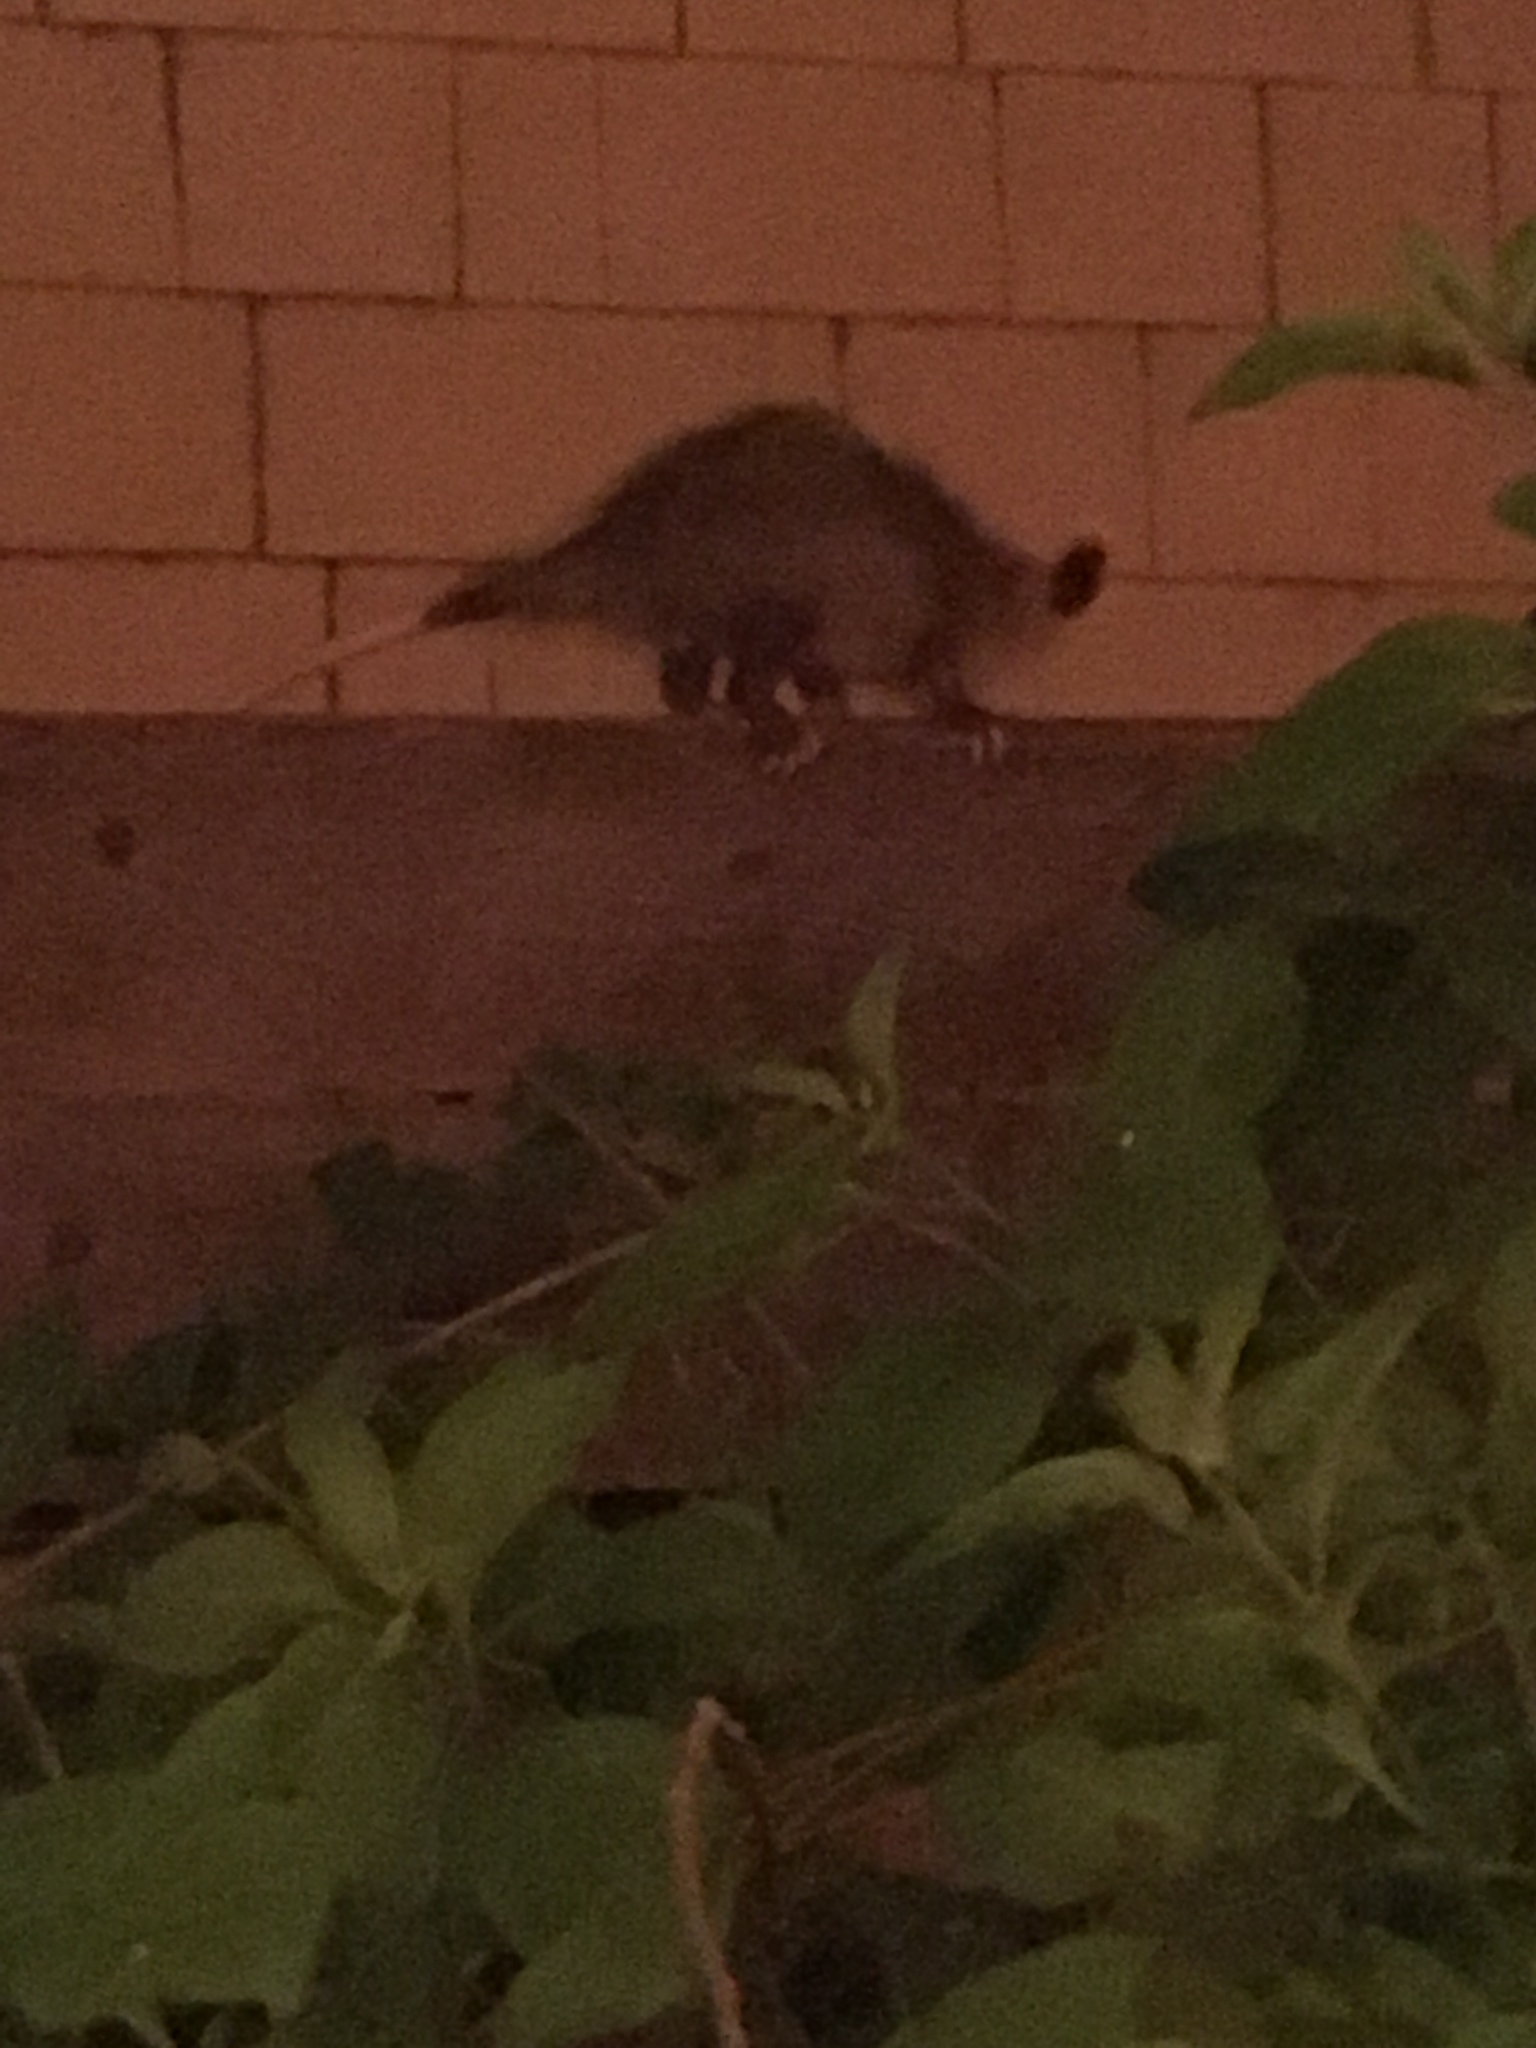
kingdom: Animalia
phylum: Chordata
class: Mammalia
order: Didelphimorphia
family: Didelphidae
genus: Didelphis
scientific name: Didelphis virginiana
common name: Virginia opossum
